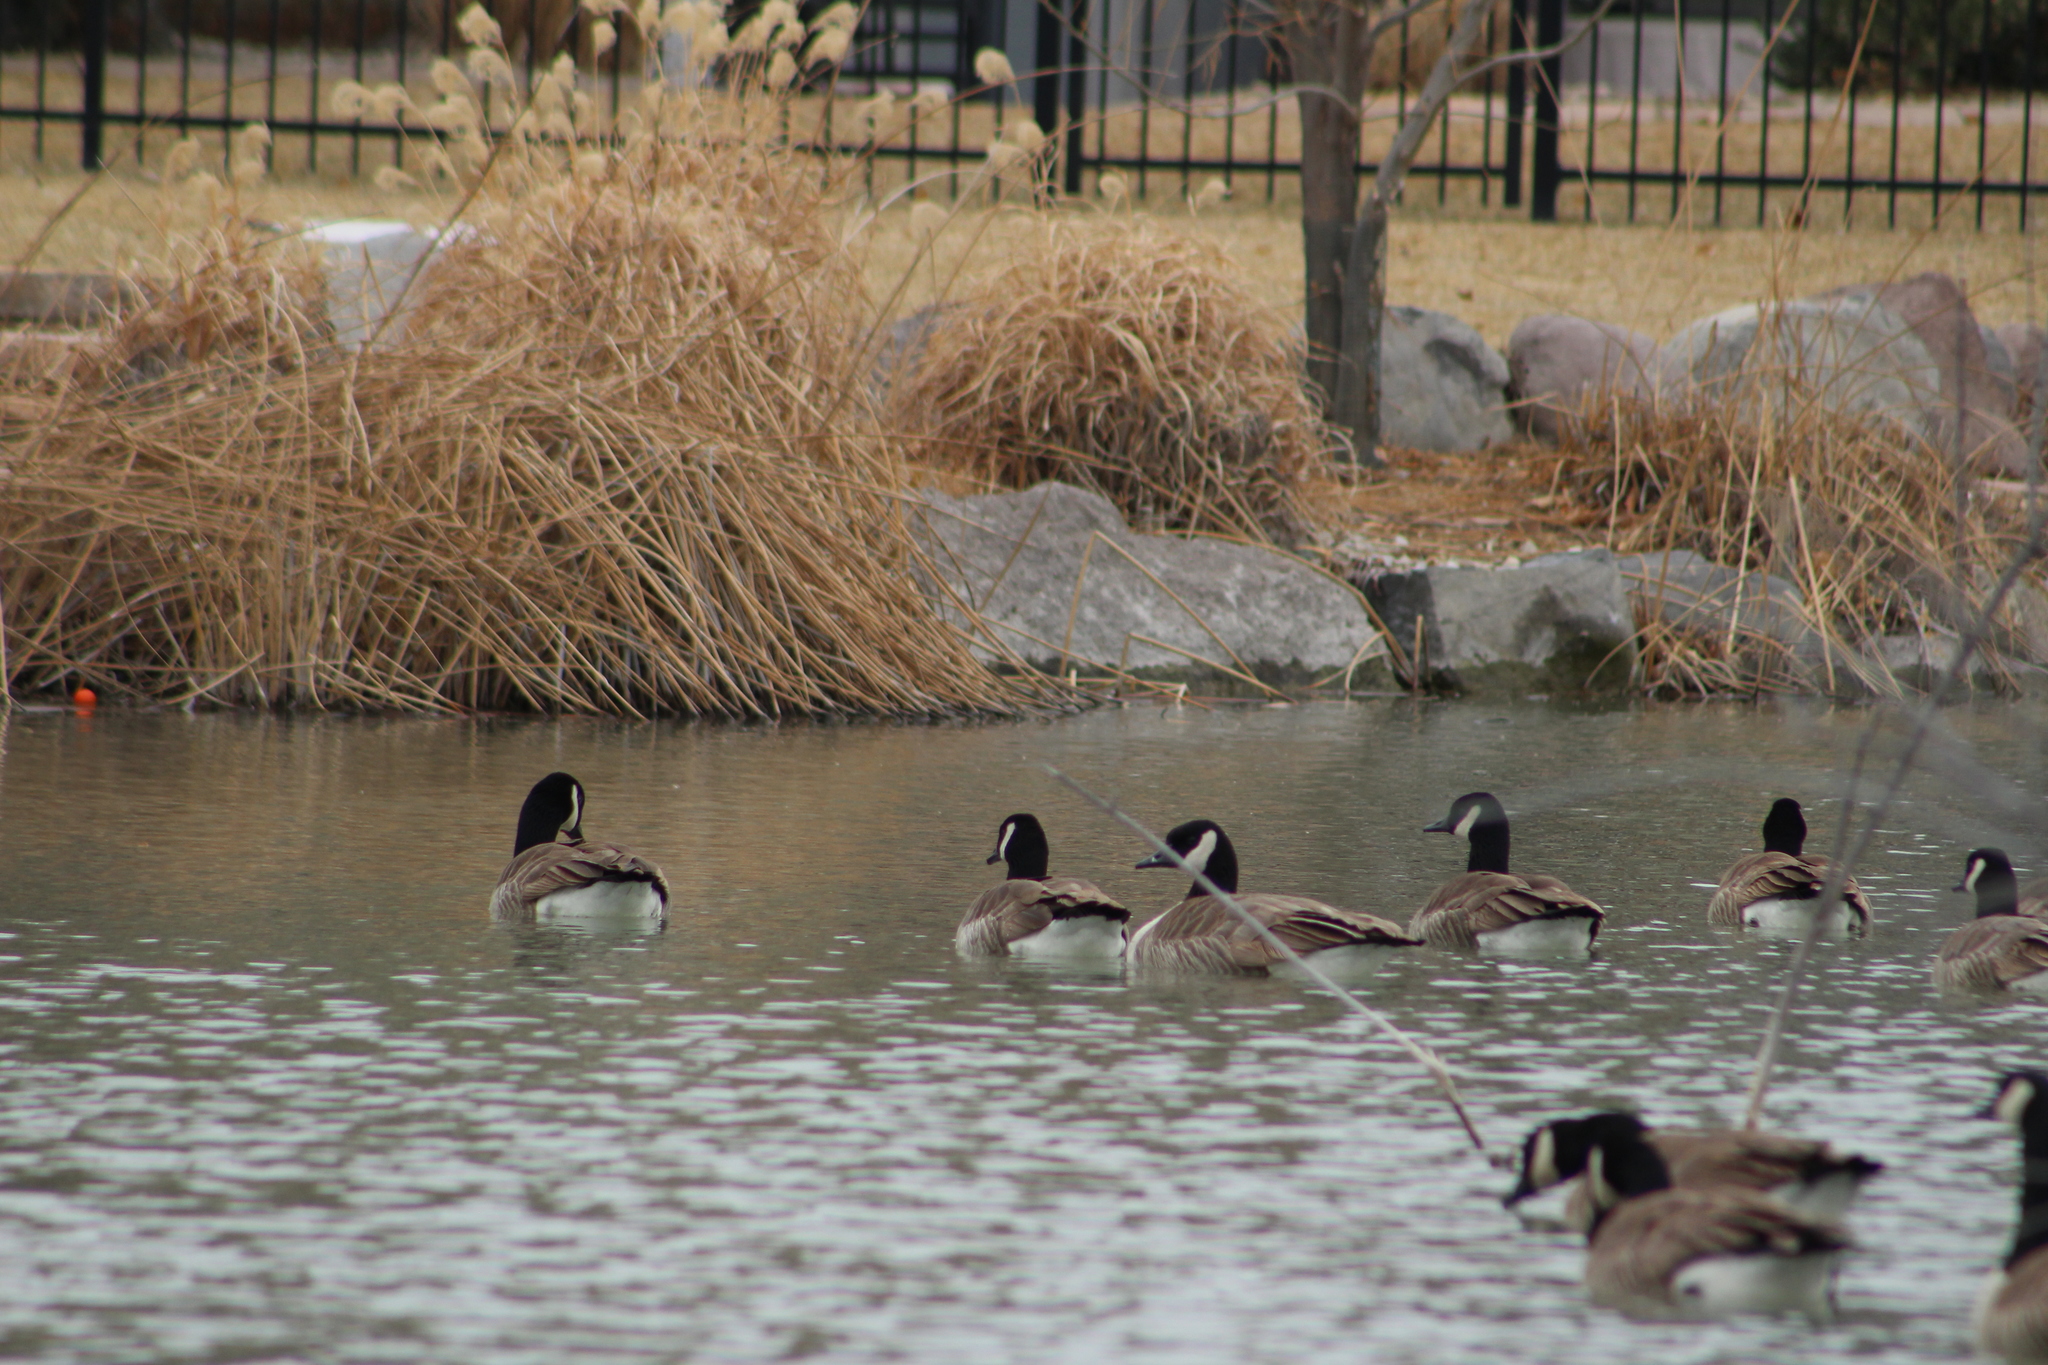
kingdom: Animalia
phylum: Chordata
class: Aves
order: Anseriformes
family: Anatidae
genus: Branta
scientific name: Branta canadensis
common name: Canada goose
